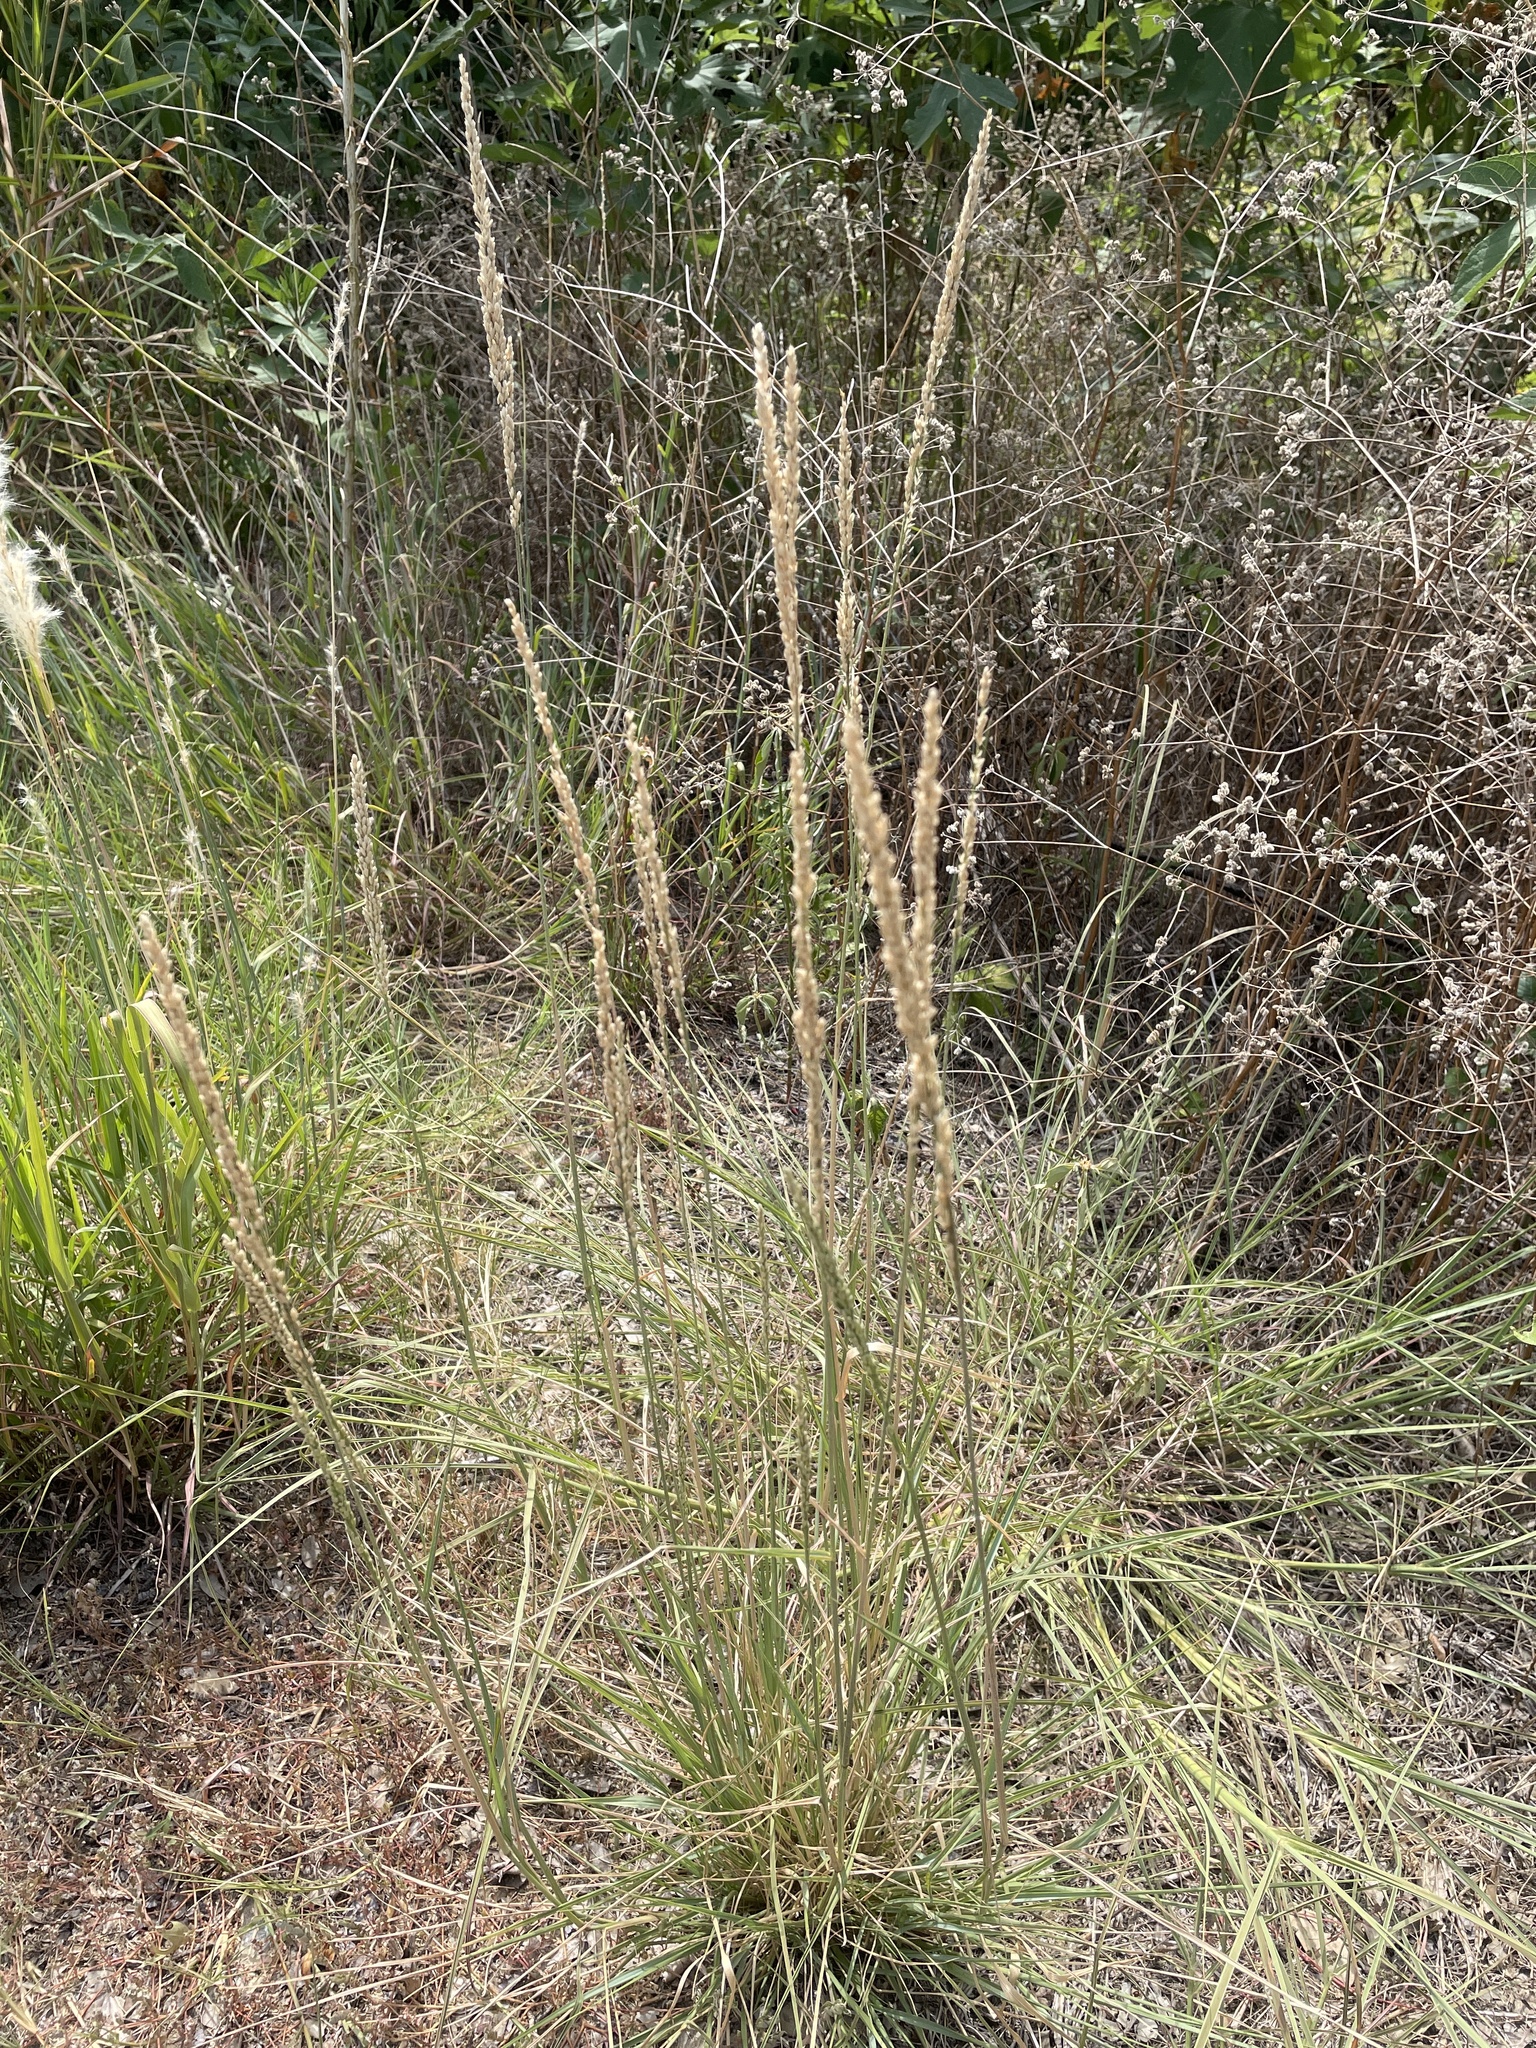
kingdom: Plantae
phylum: Tracheophyta
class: Liliopsida
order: Poales
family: Poaceae
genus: Tridens
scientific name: Tridens albescens
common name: White tridens
